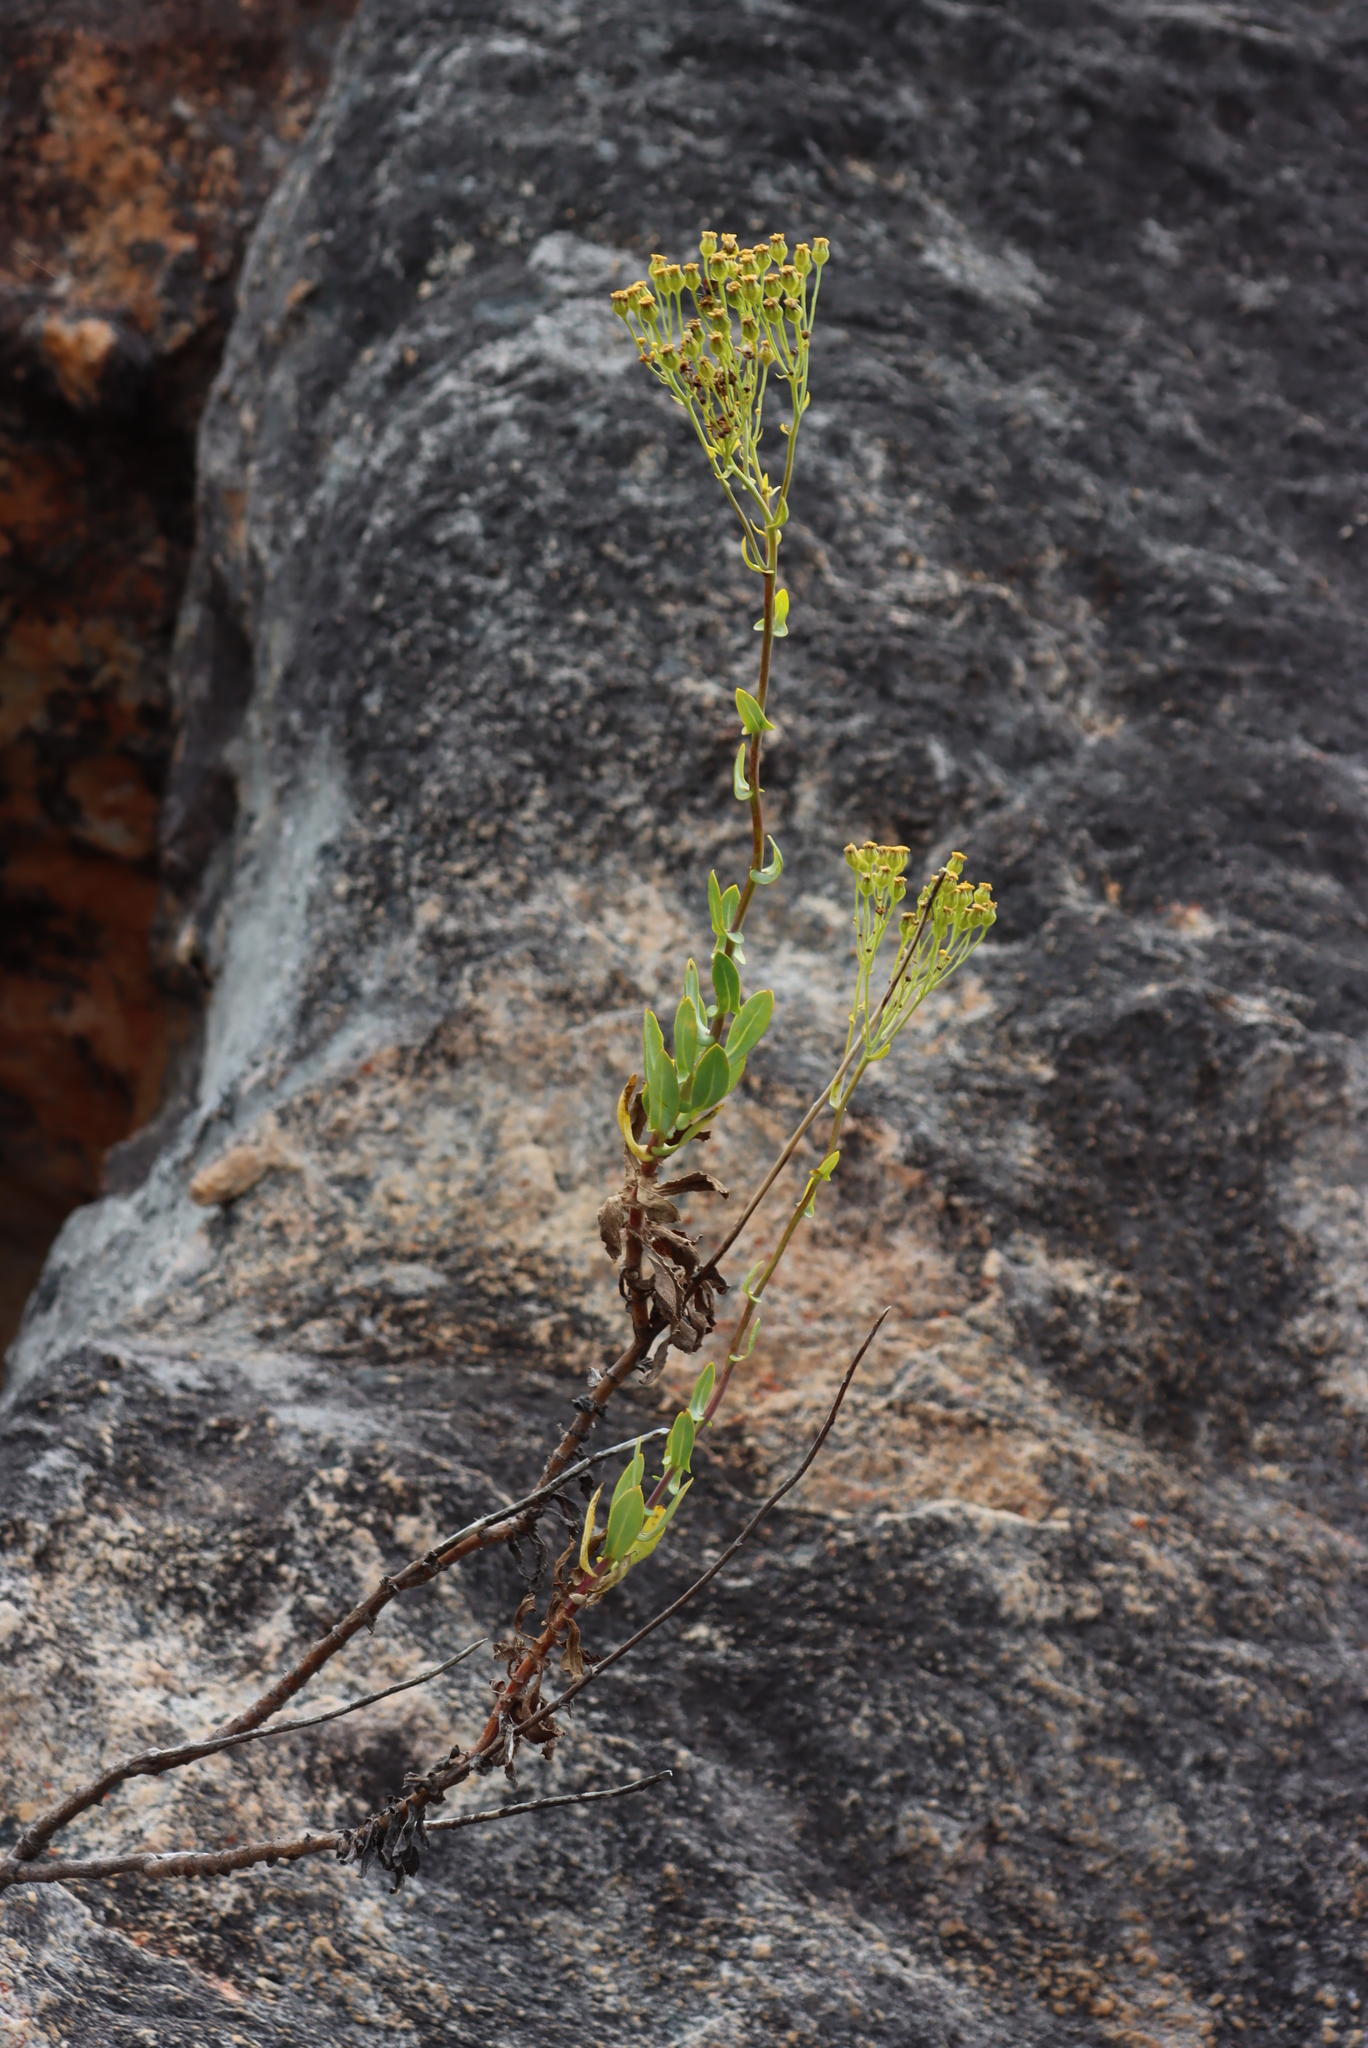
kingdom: Plantae
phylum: Tracheophyta
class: Magnoliopsida
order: Asterales
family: Asteraceae
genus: Othonna
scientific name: Othonna parviflora
